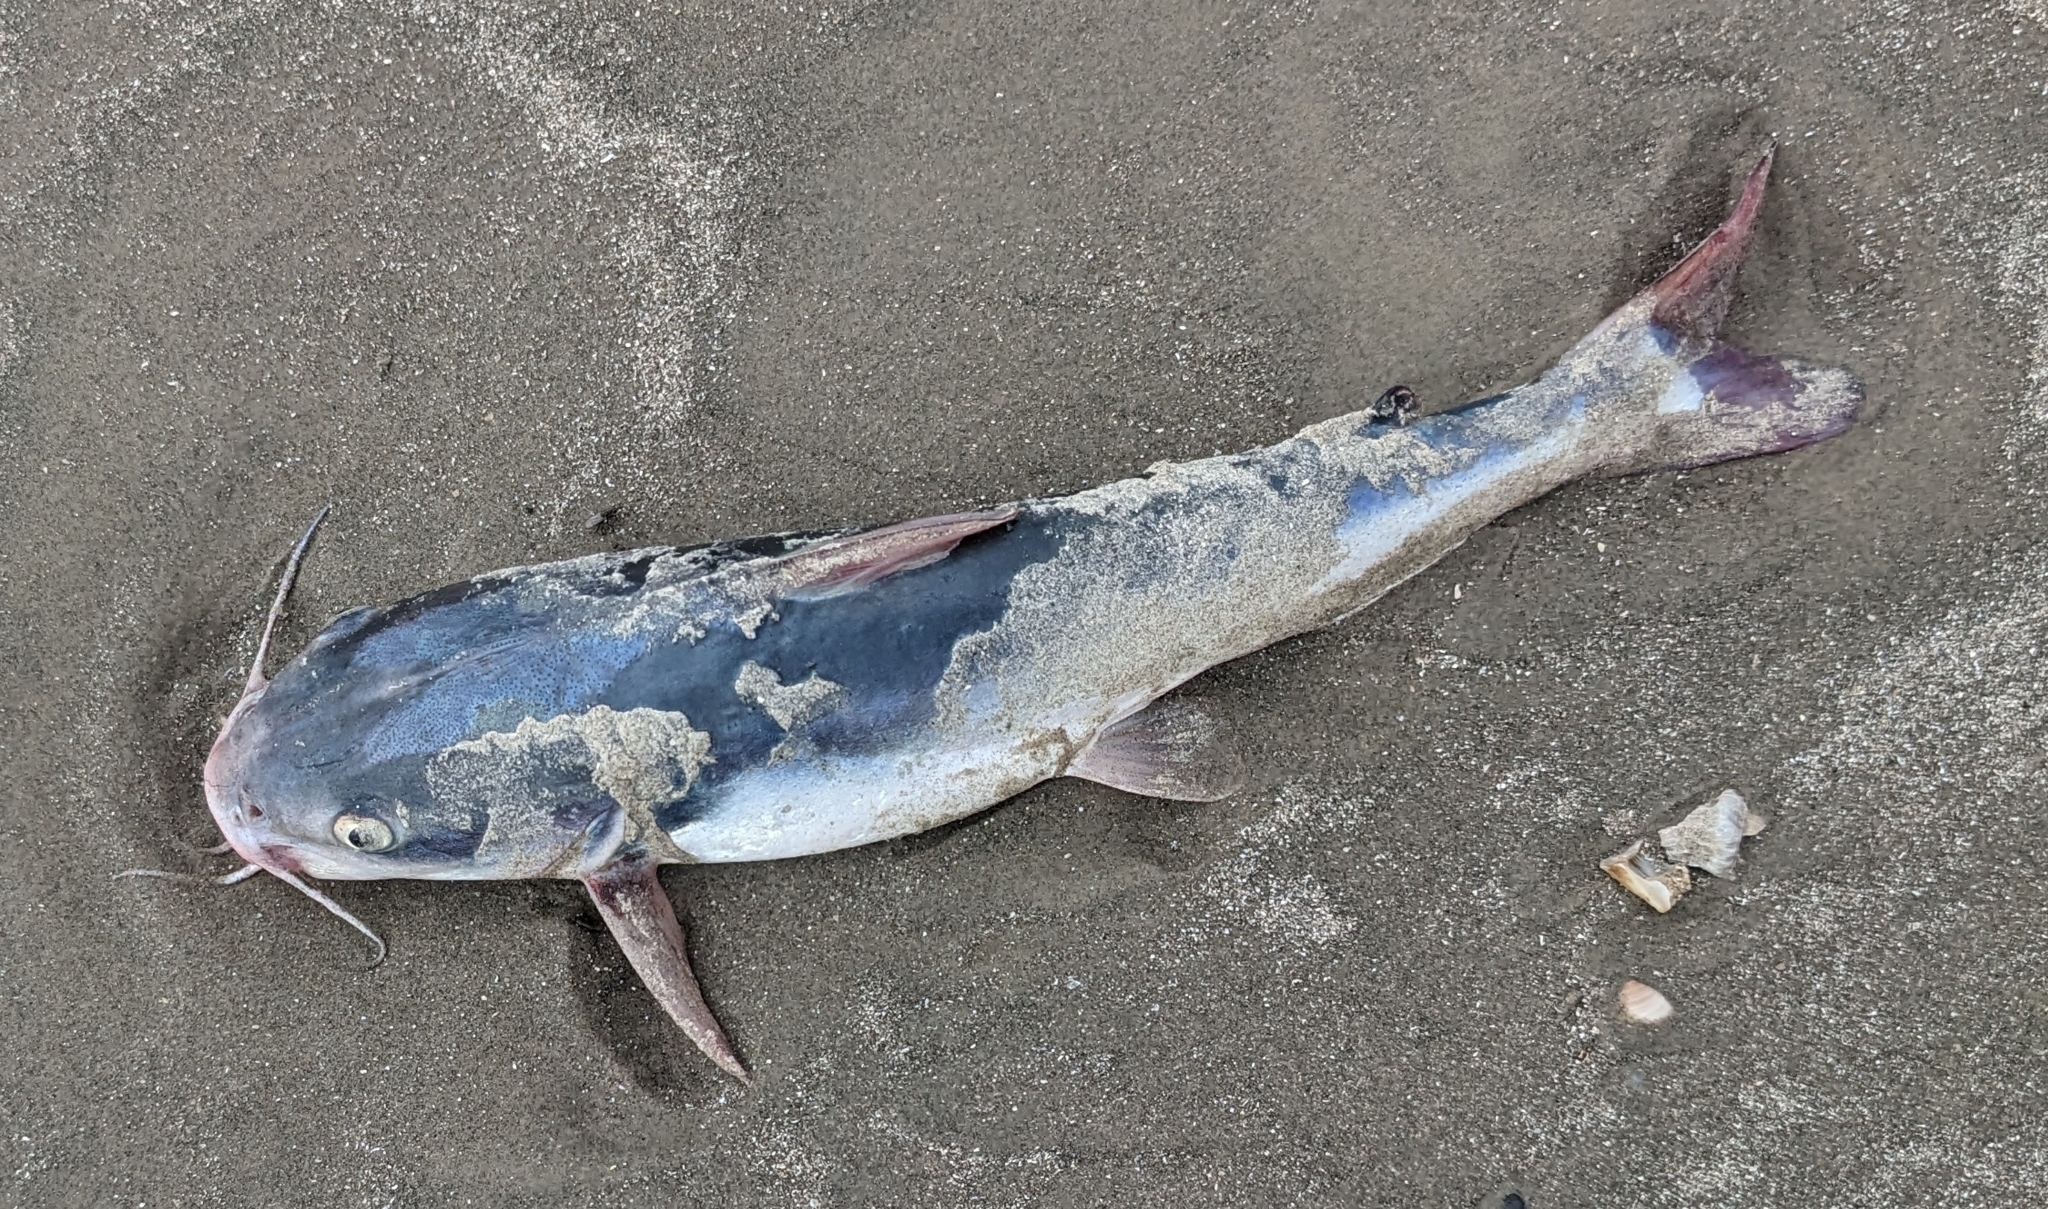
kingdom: Animalia
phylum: Chordata
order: Siluriformes
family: Ariidae
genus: Ariopsis
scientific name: Ariopsis felis
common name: Hardhead catfish
